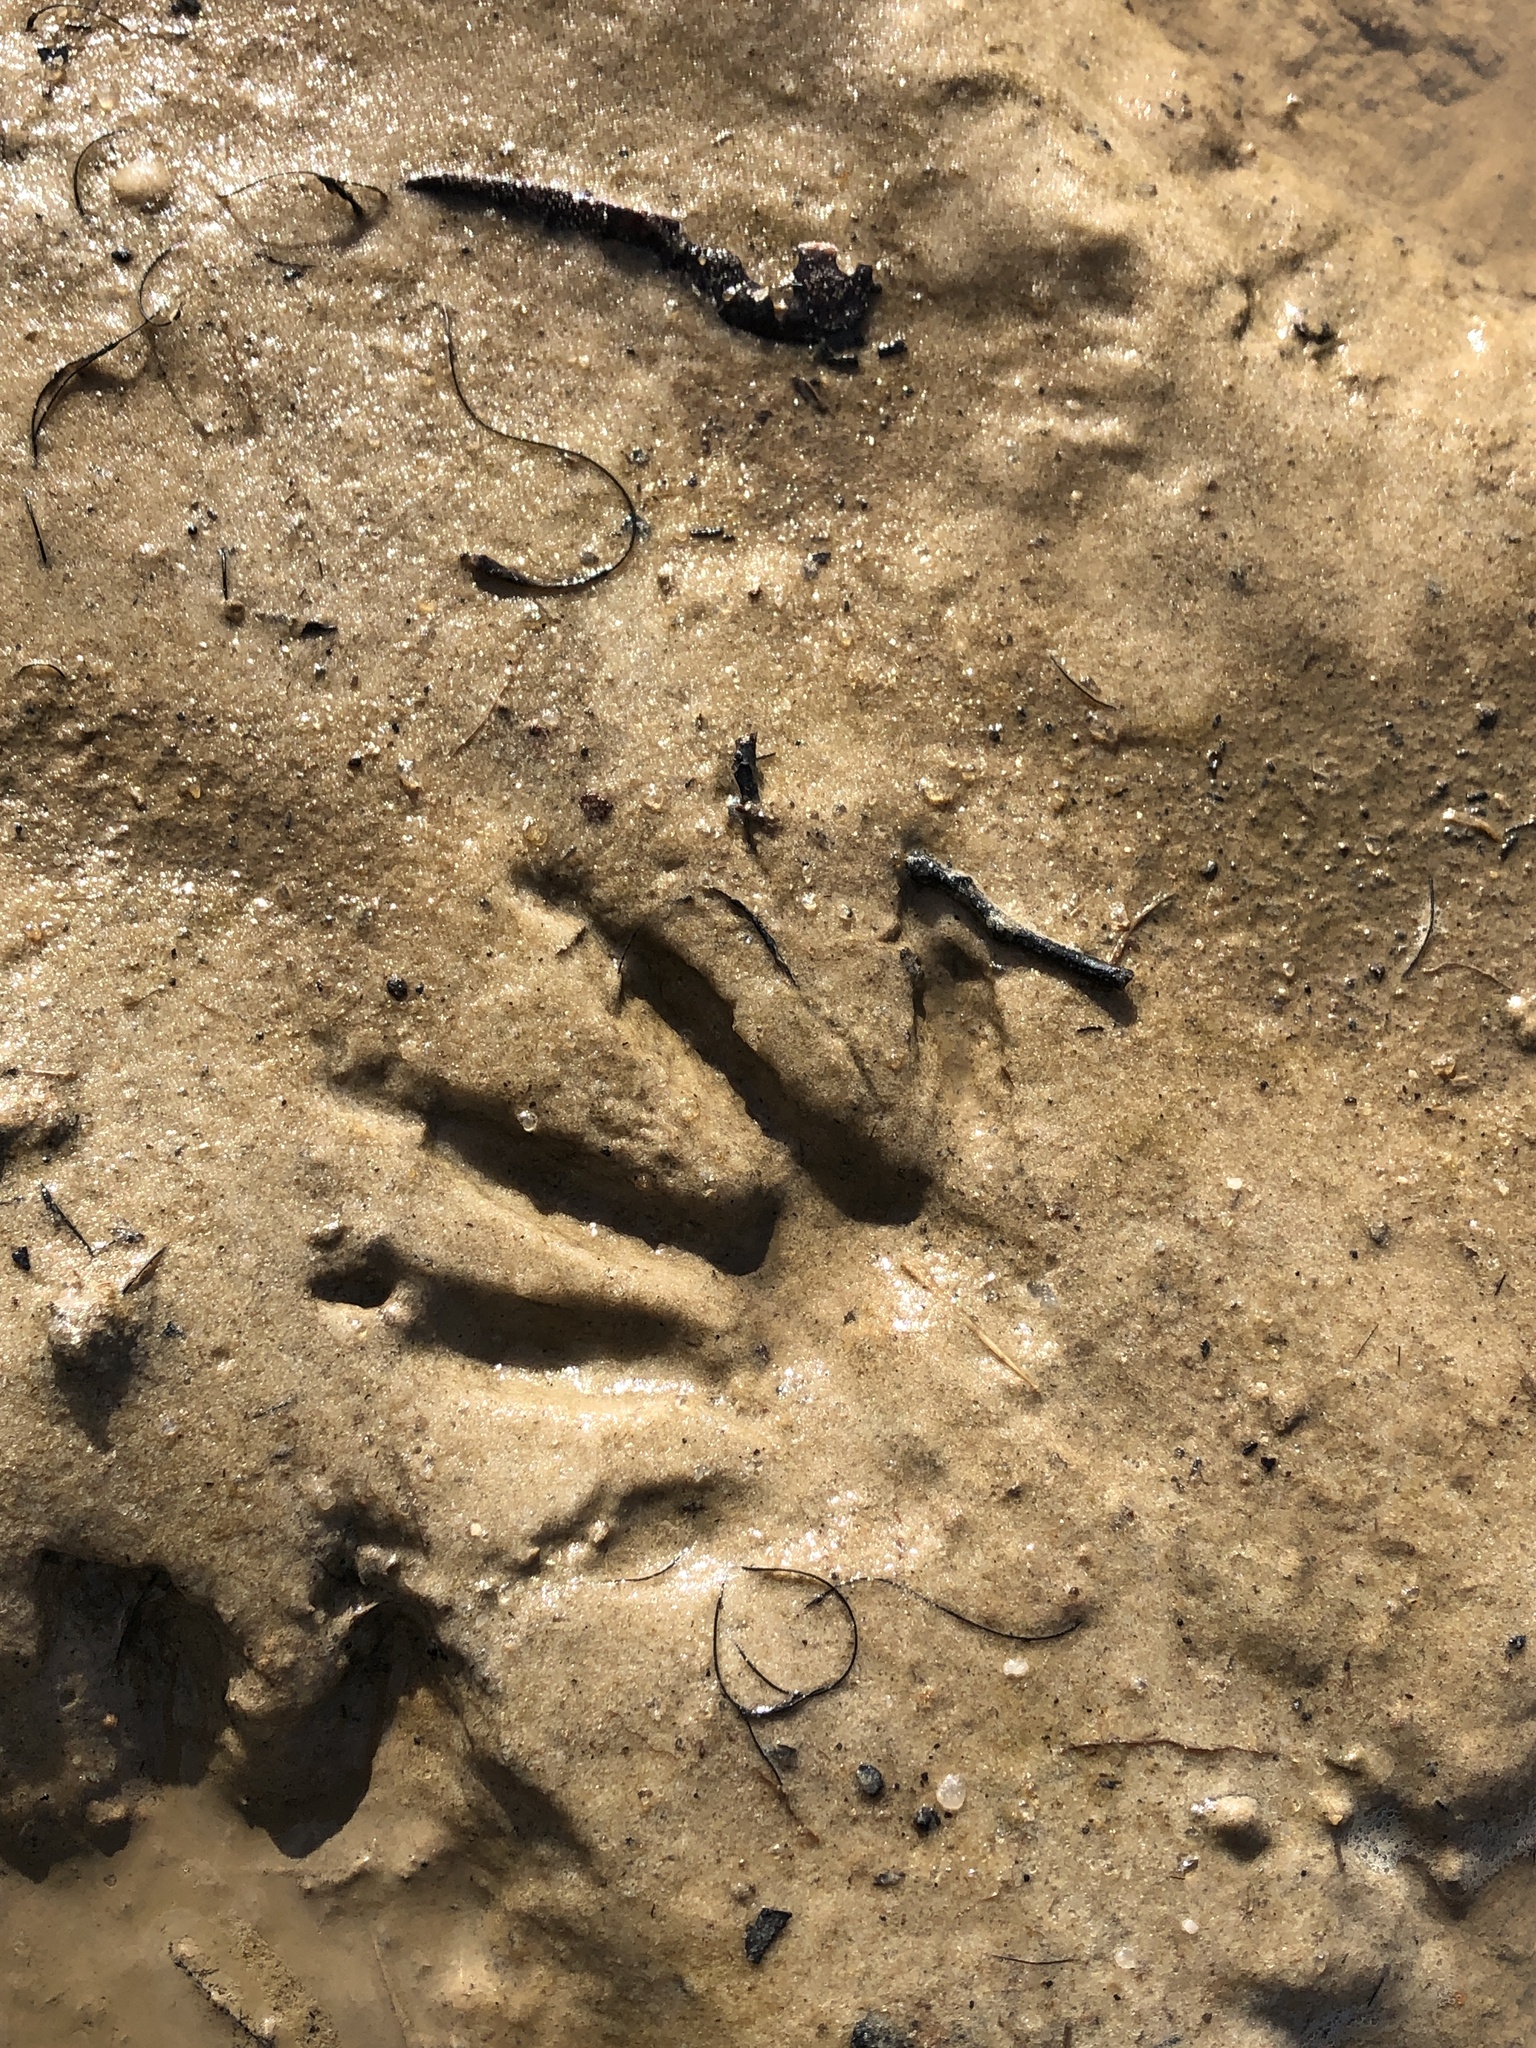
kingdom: Animalia
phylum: Chordata
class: Mammalia
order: Carnivora
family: Procyonidae
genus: Procyon
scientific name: Procyon lotor
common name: Raccoon
